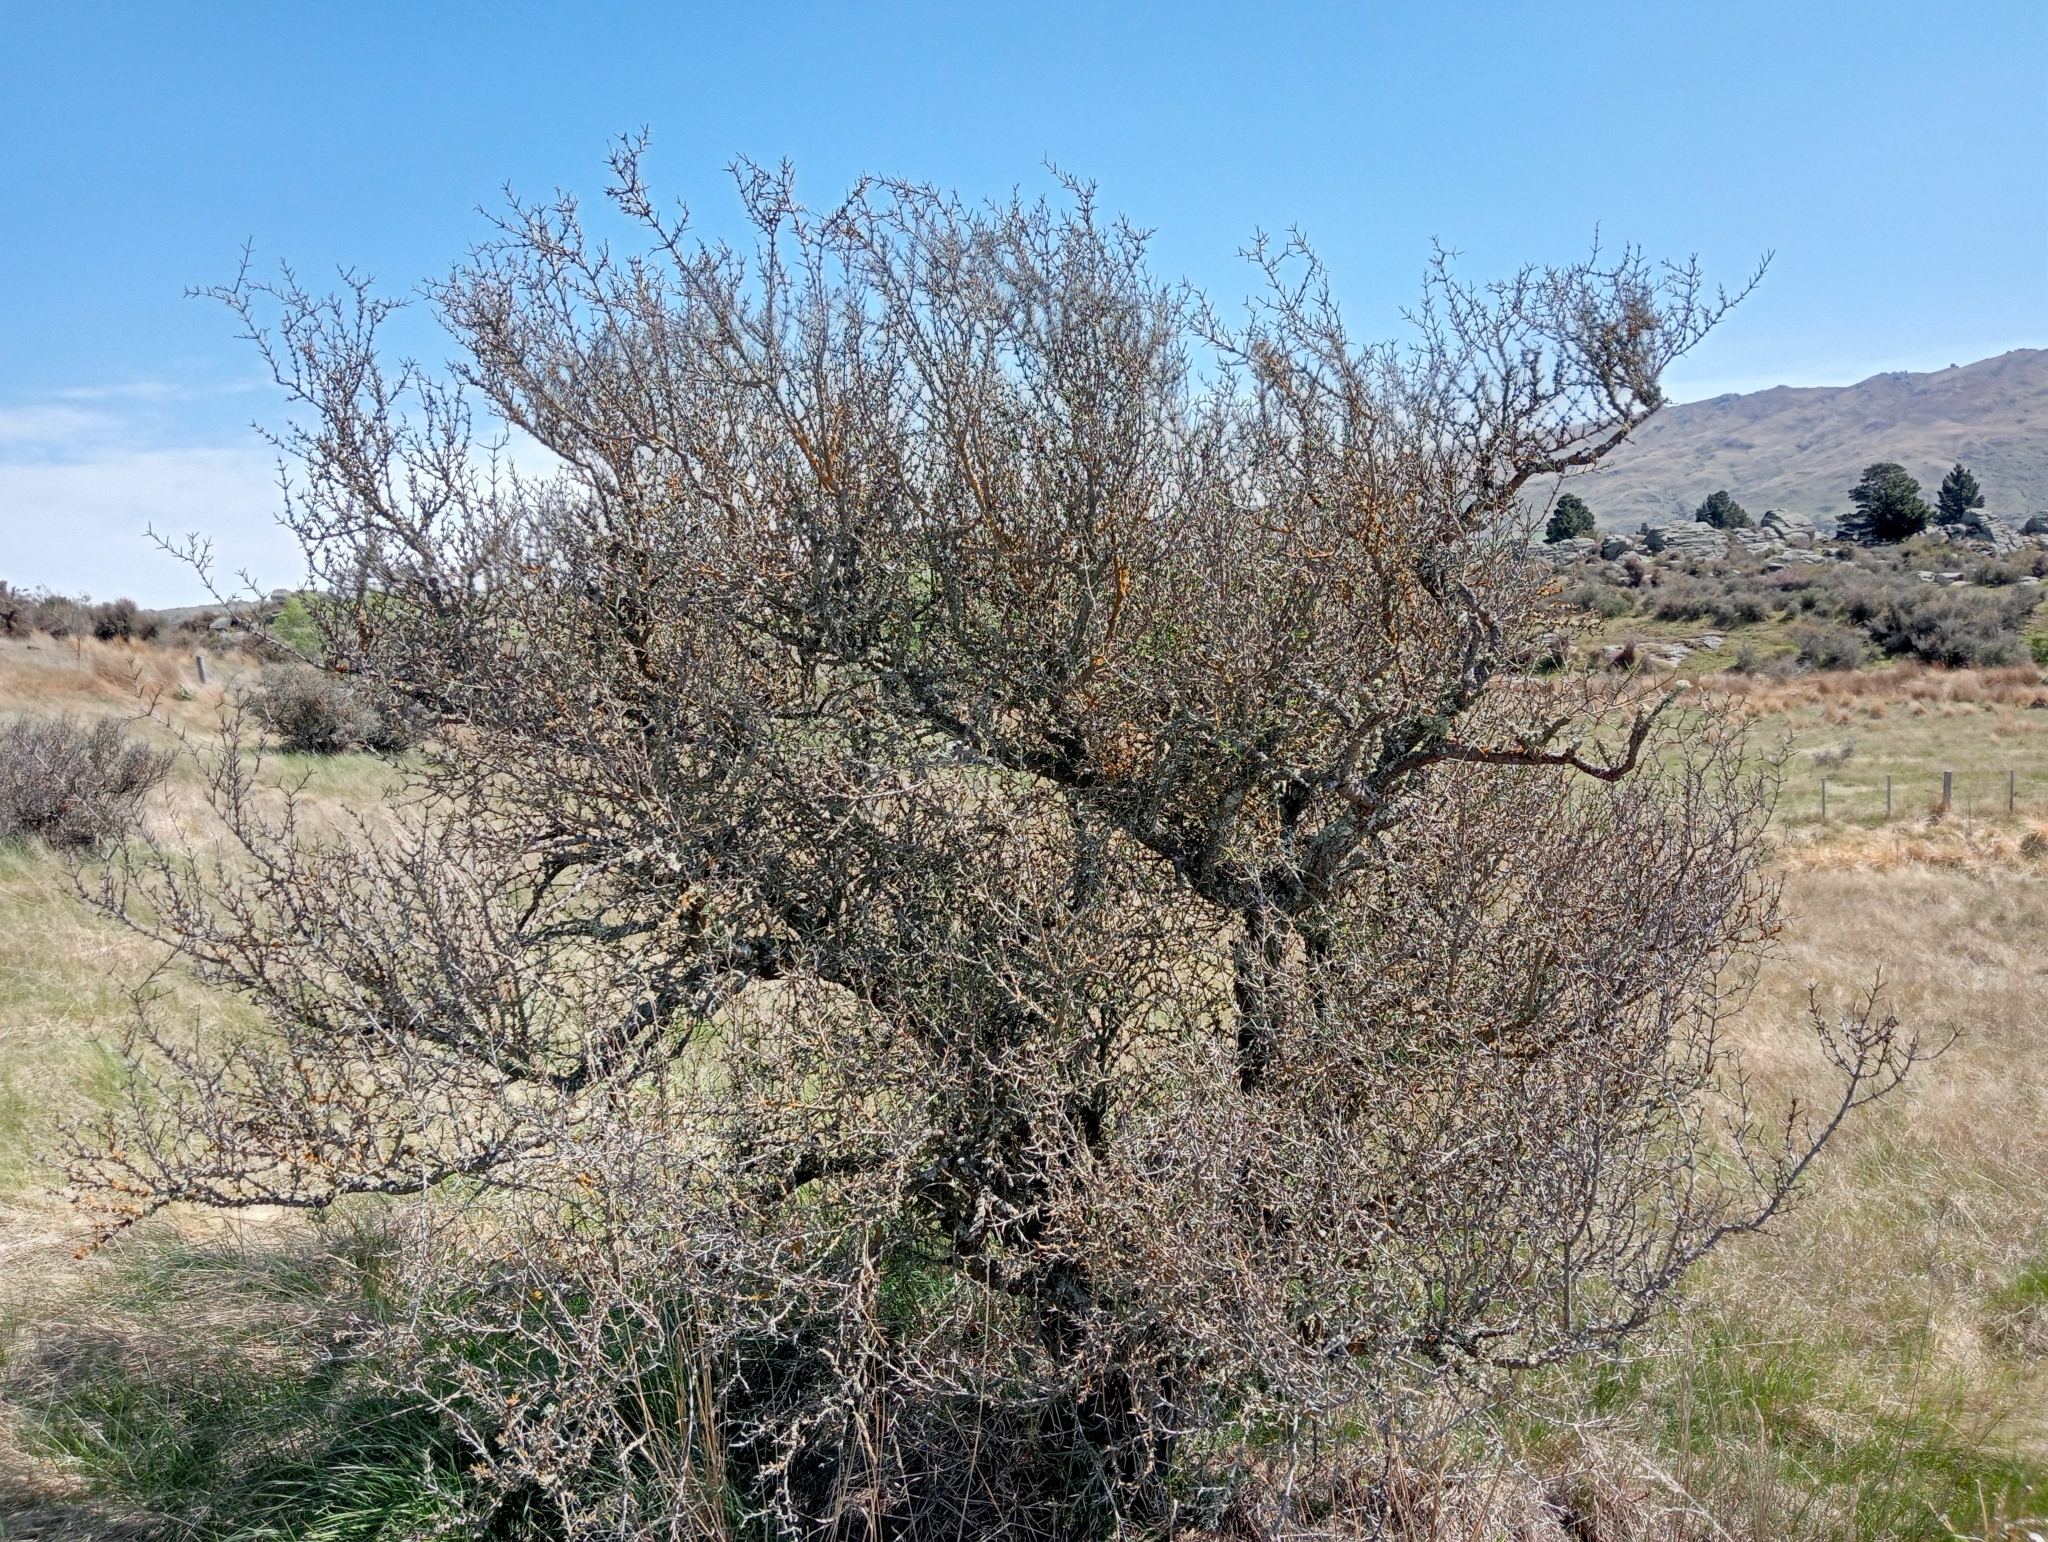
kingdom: Plantae
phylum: Tracheophyta
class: Magnoliopsida
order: Rosales
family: Rhamnaceae
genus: Discaria
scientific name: Discaria toumatou
